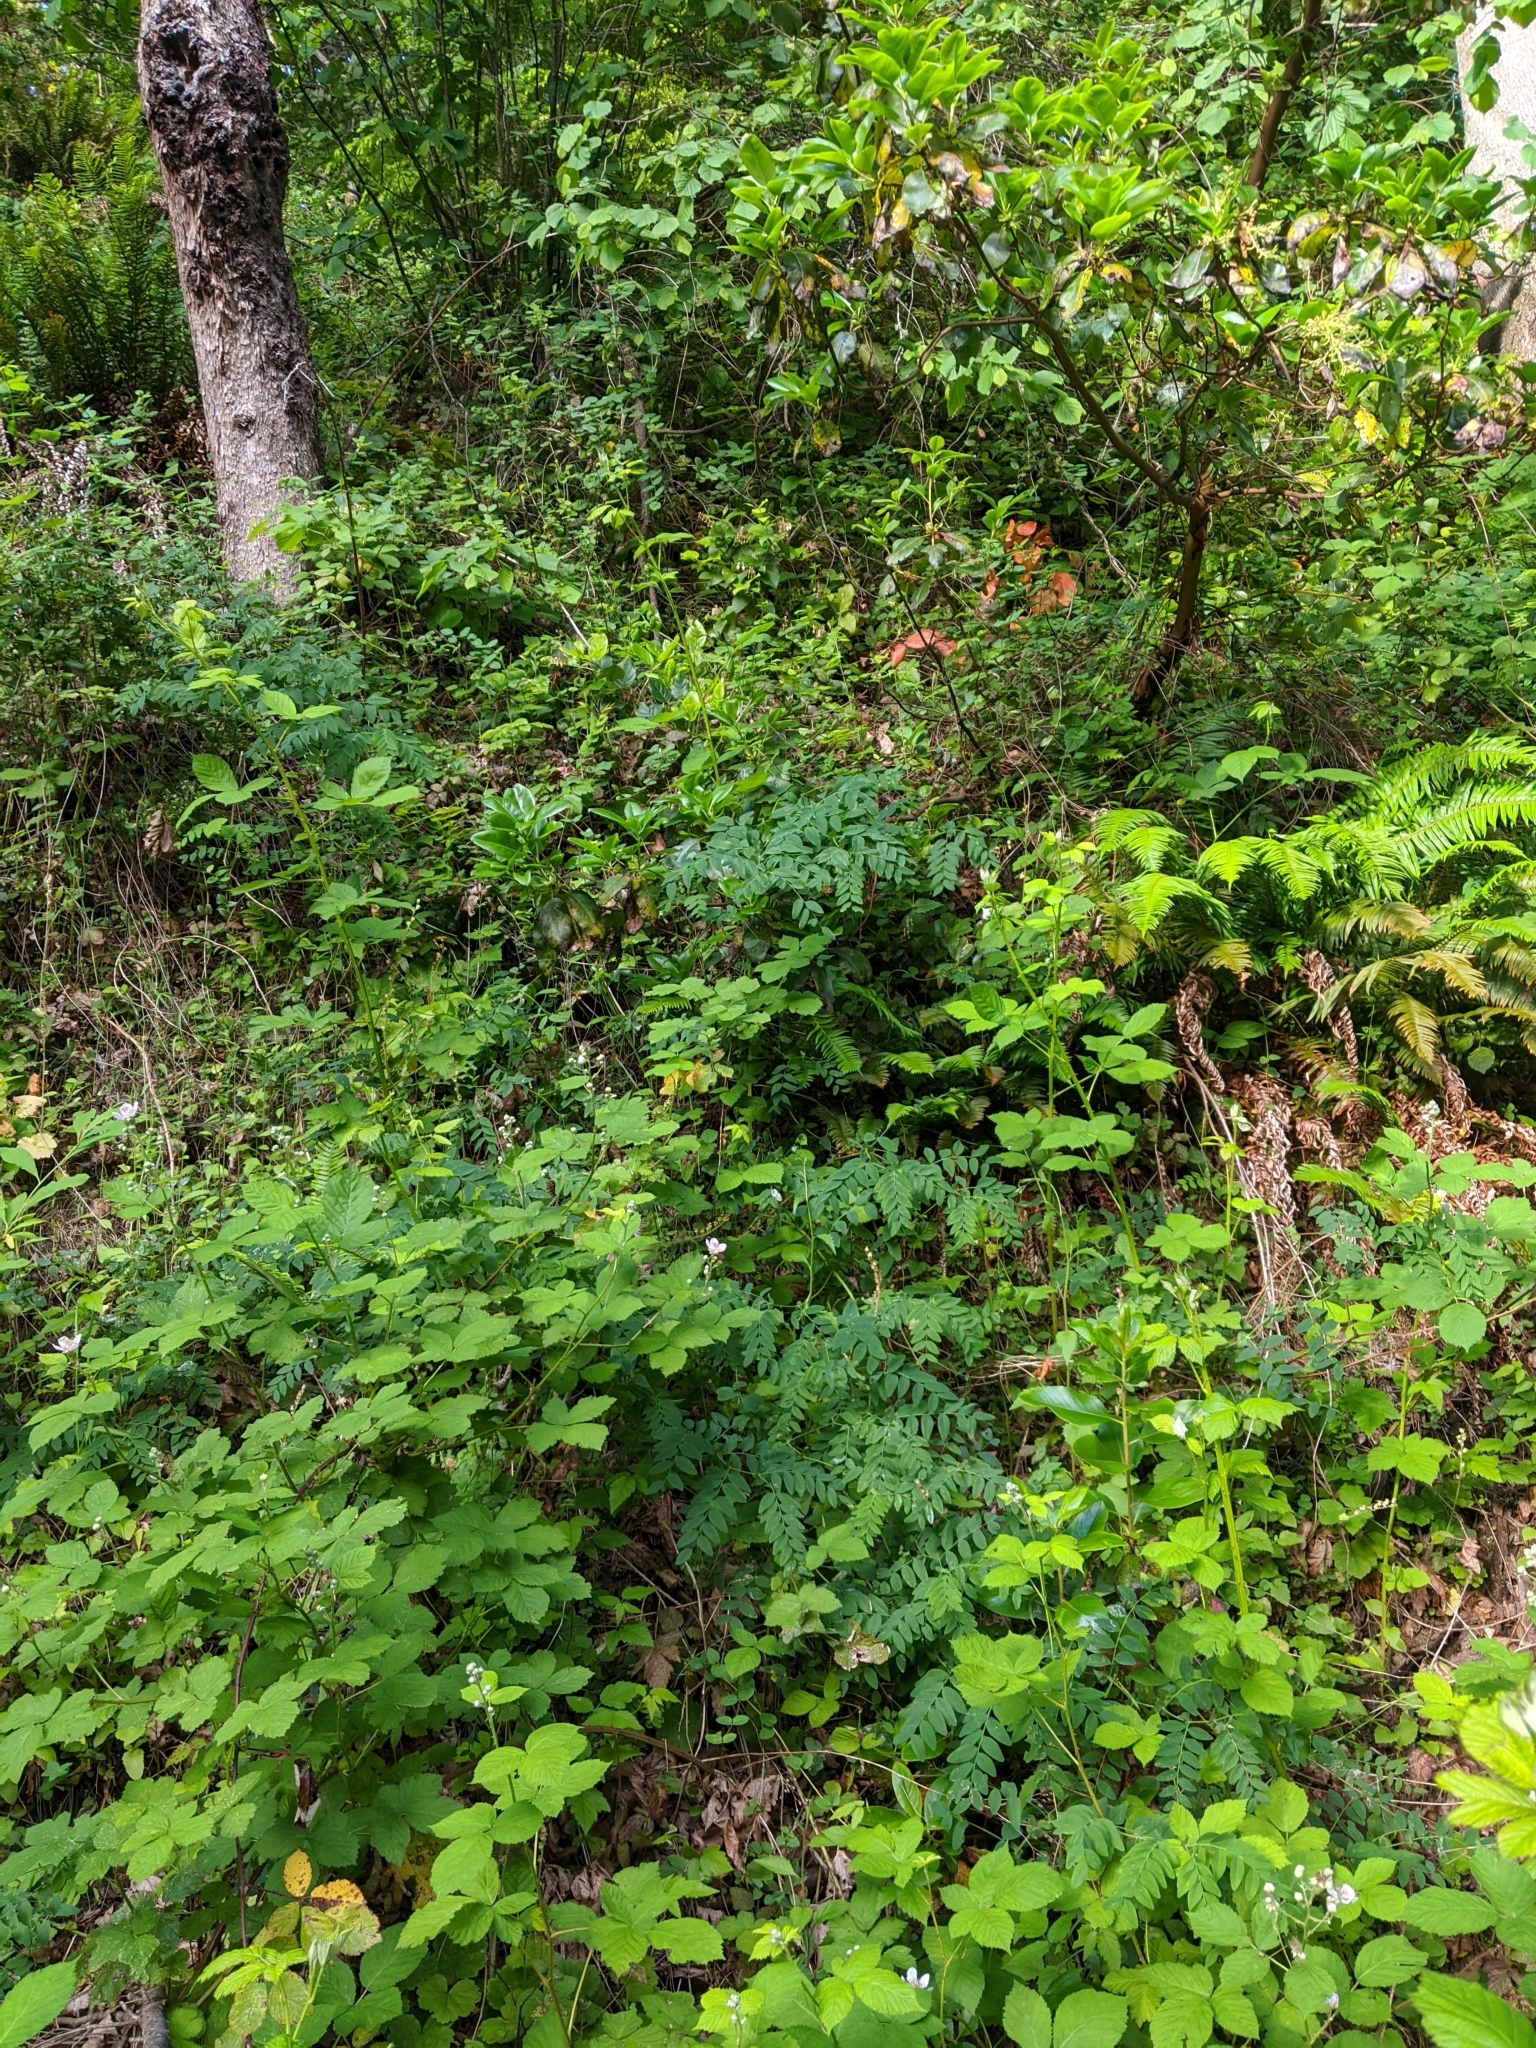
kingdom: Plantae
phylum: Tracheophyta
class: Magnoliopsida
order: Fabales
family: Fabaceae
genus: Lathyrus
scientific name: Lathyrus polyphyllus
